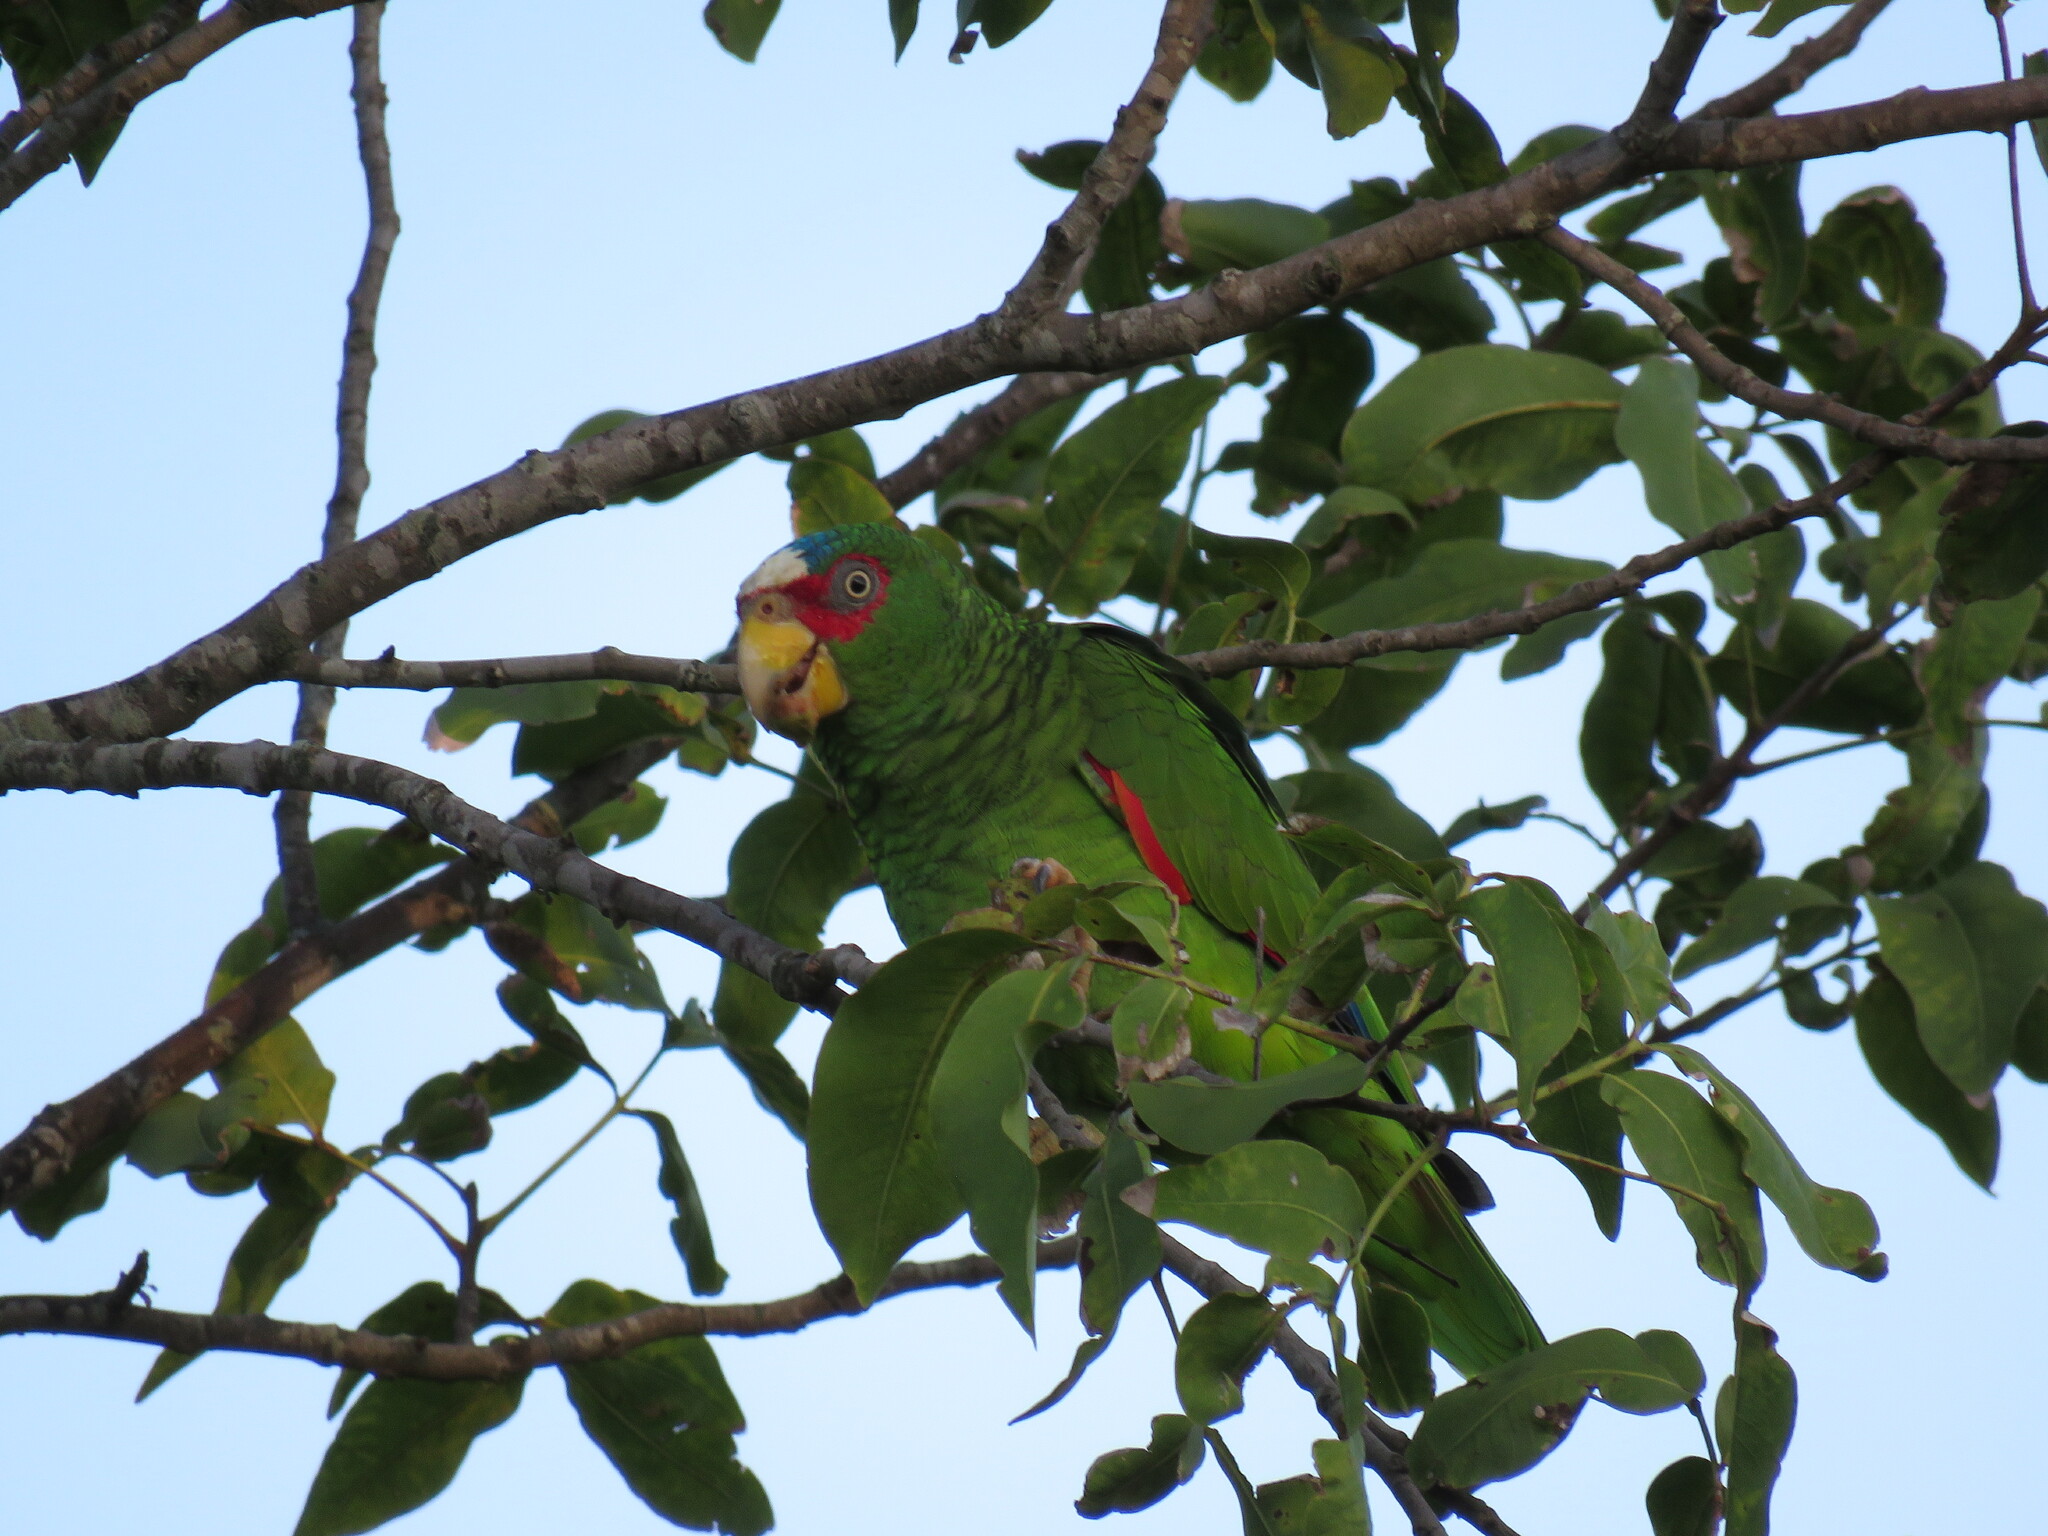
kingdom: Animalia
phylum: Chordata
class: Aves
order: Psittaciformes
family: Psittacidae
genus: Amazona
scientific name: Amazona albifrons
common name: White-fronted amazon
